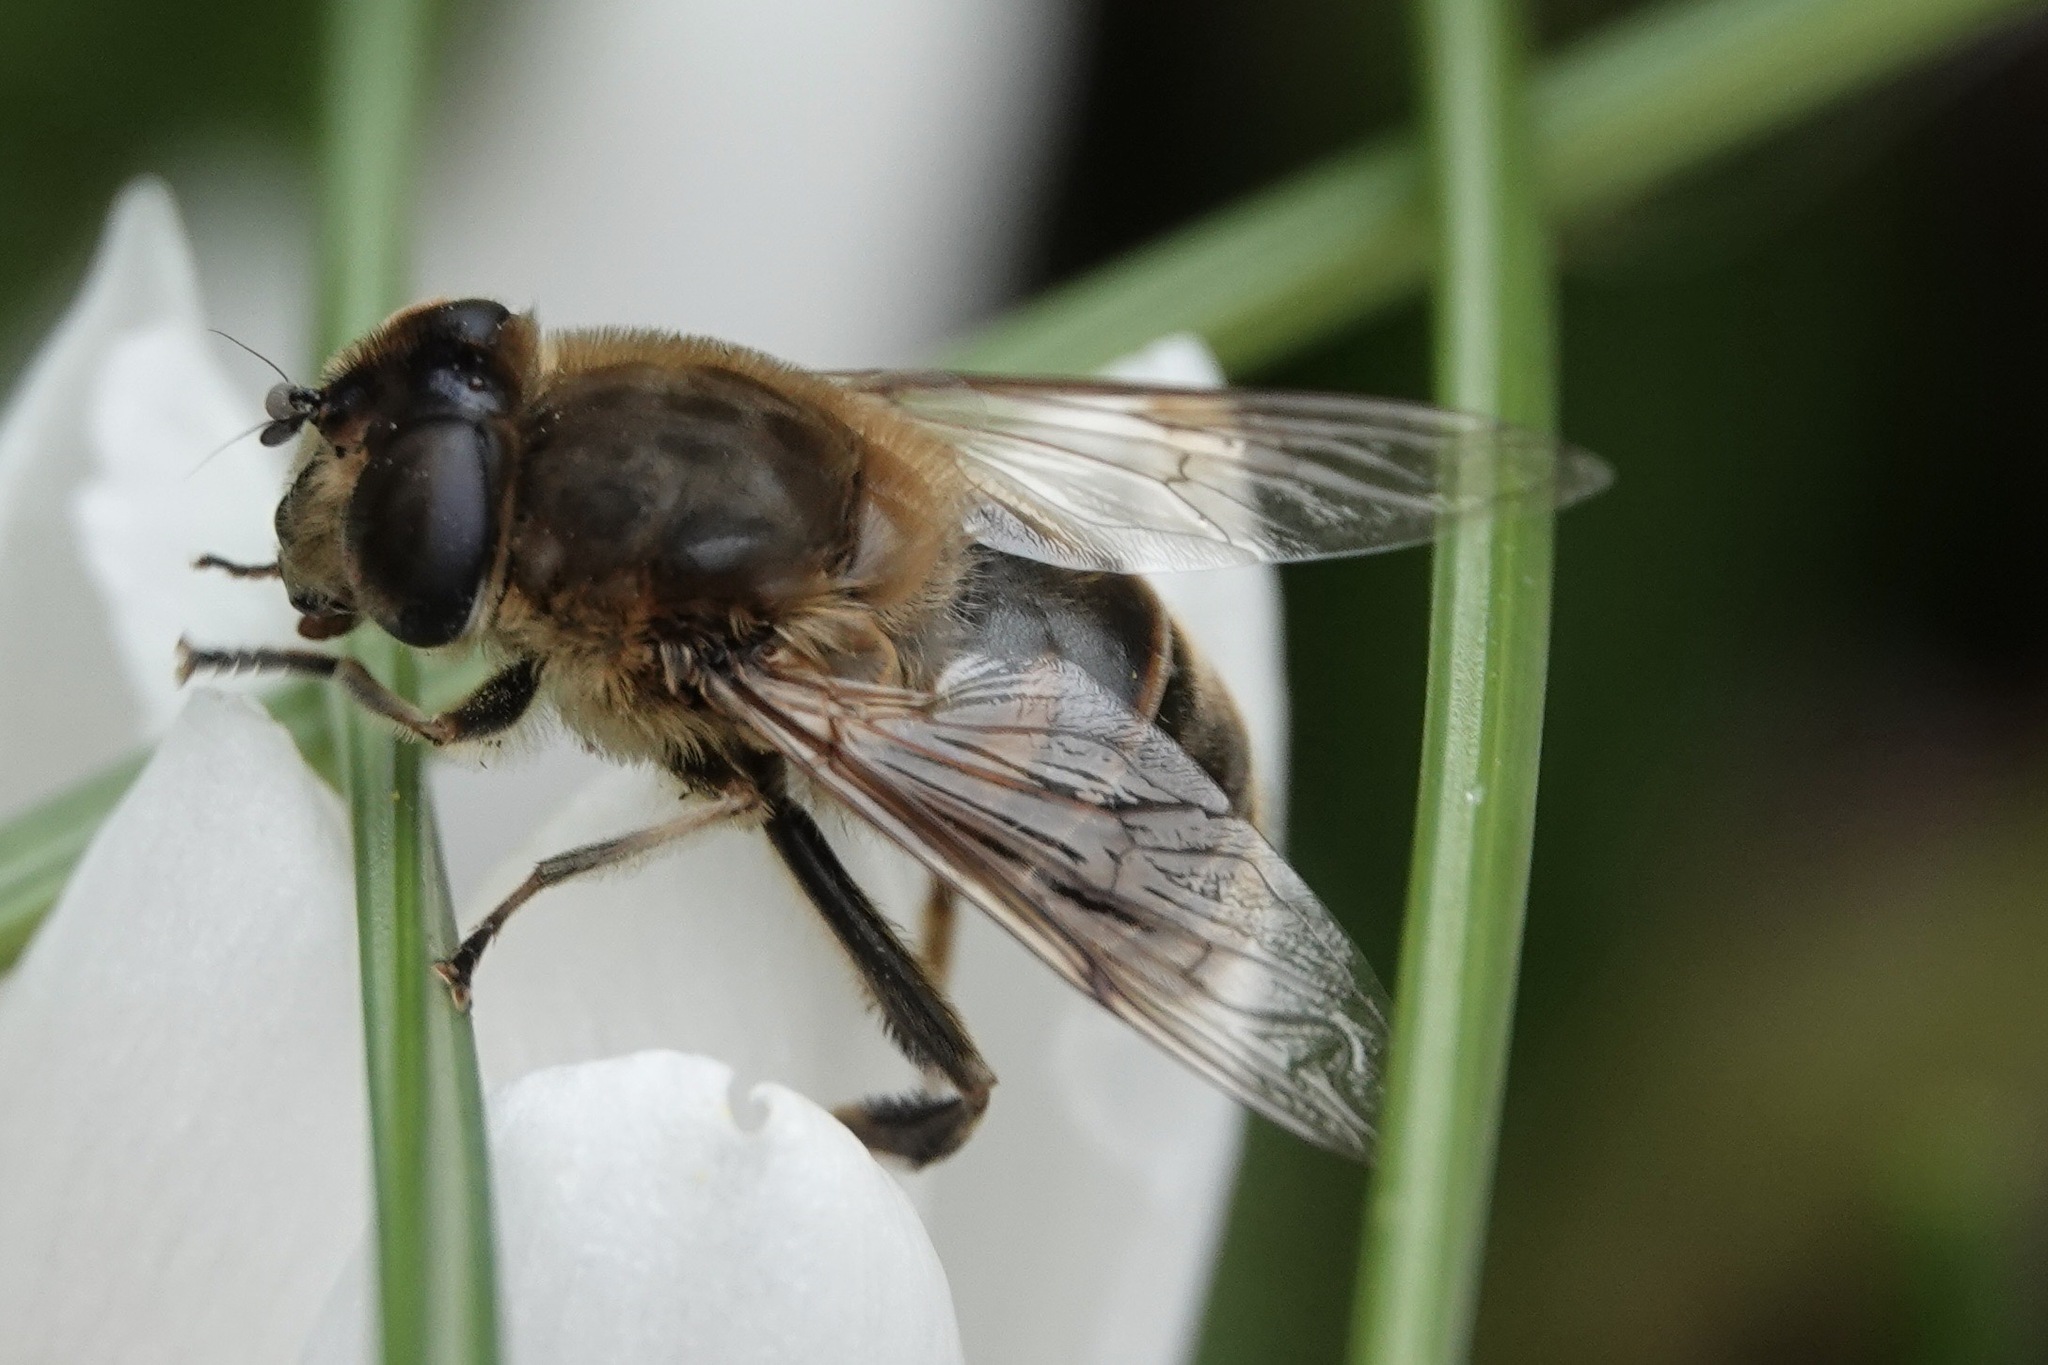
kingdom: Animalia
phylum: Arthropoda
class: Insecta
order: Diptera
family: Syrphidae
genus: Eristalis
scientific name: Eristalis tenax
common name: Drone fly
